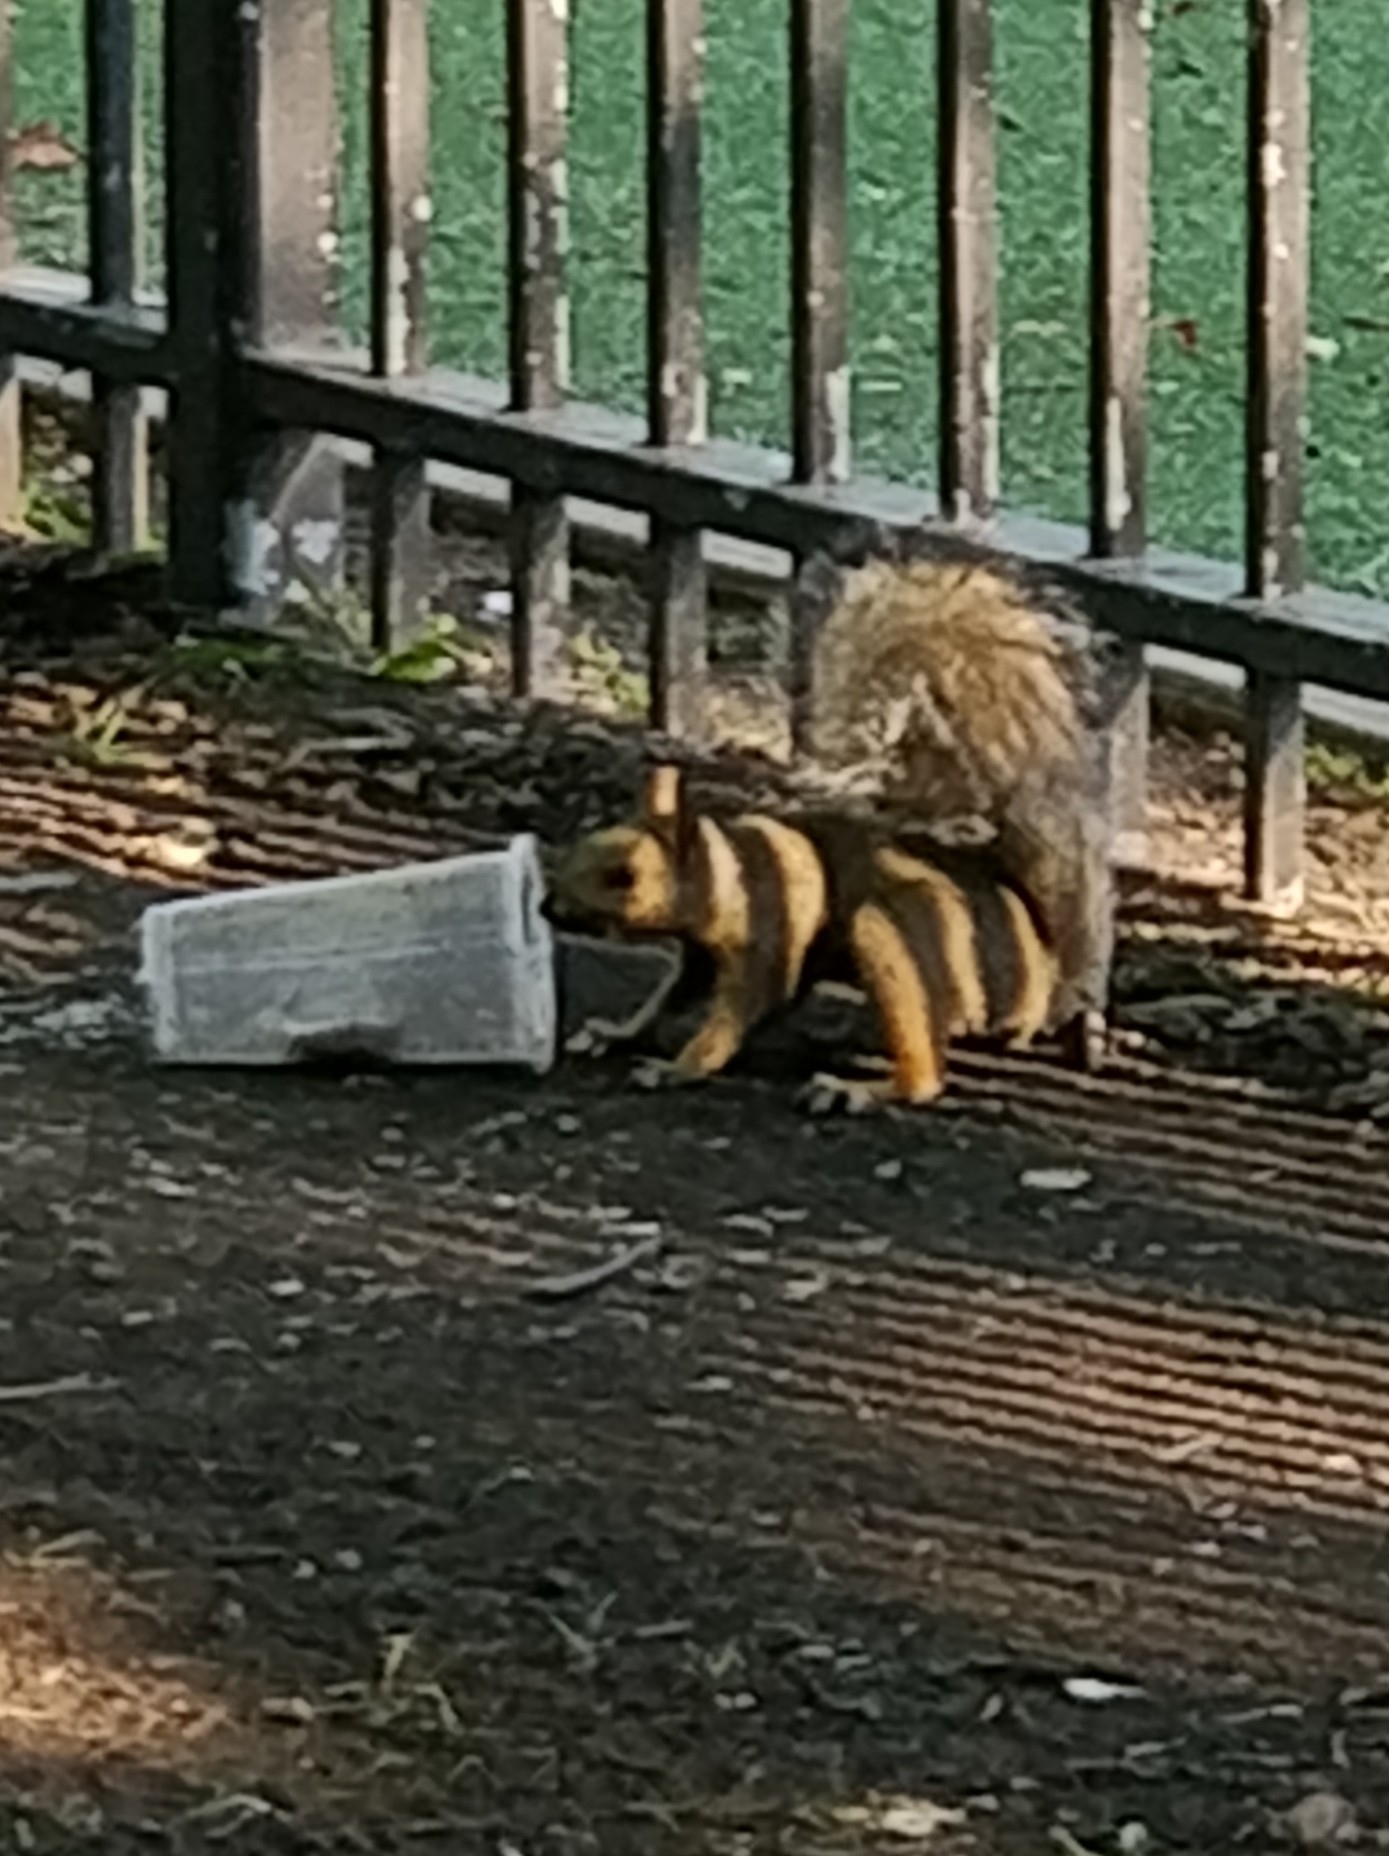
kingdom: Animalia
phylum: Chordata
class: Mammalia
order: Rodentia
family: Sciuridae
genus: Sciurus
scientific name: Sciurus carolinensis
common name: Eastern gray squirrel
